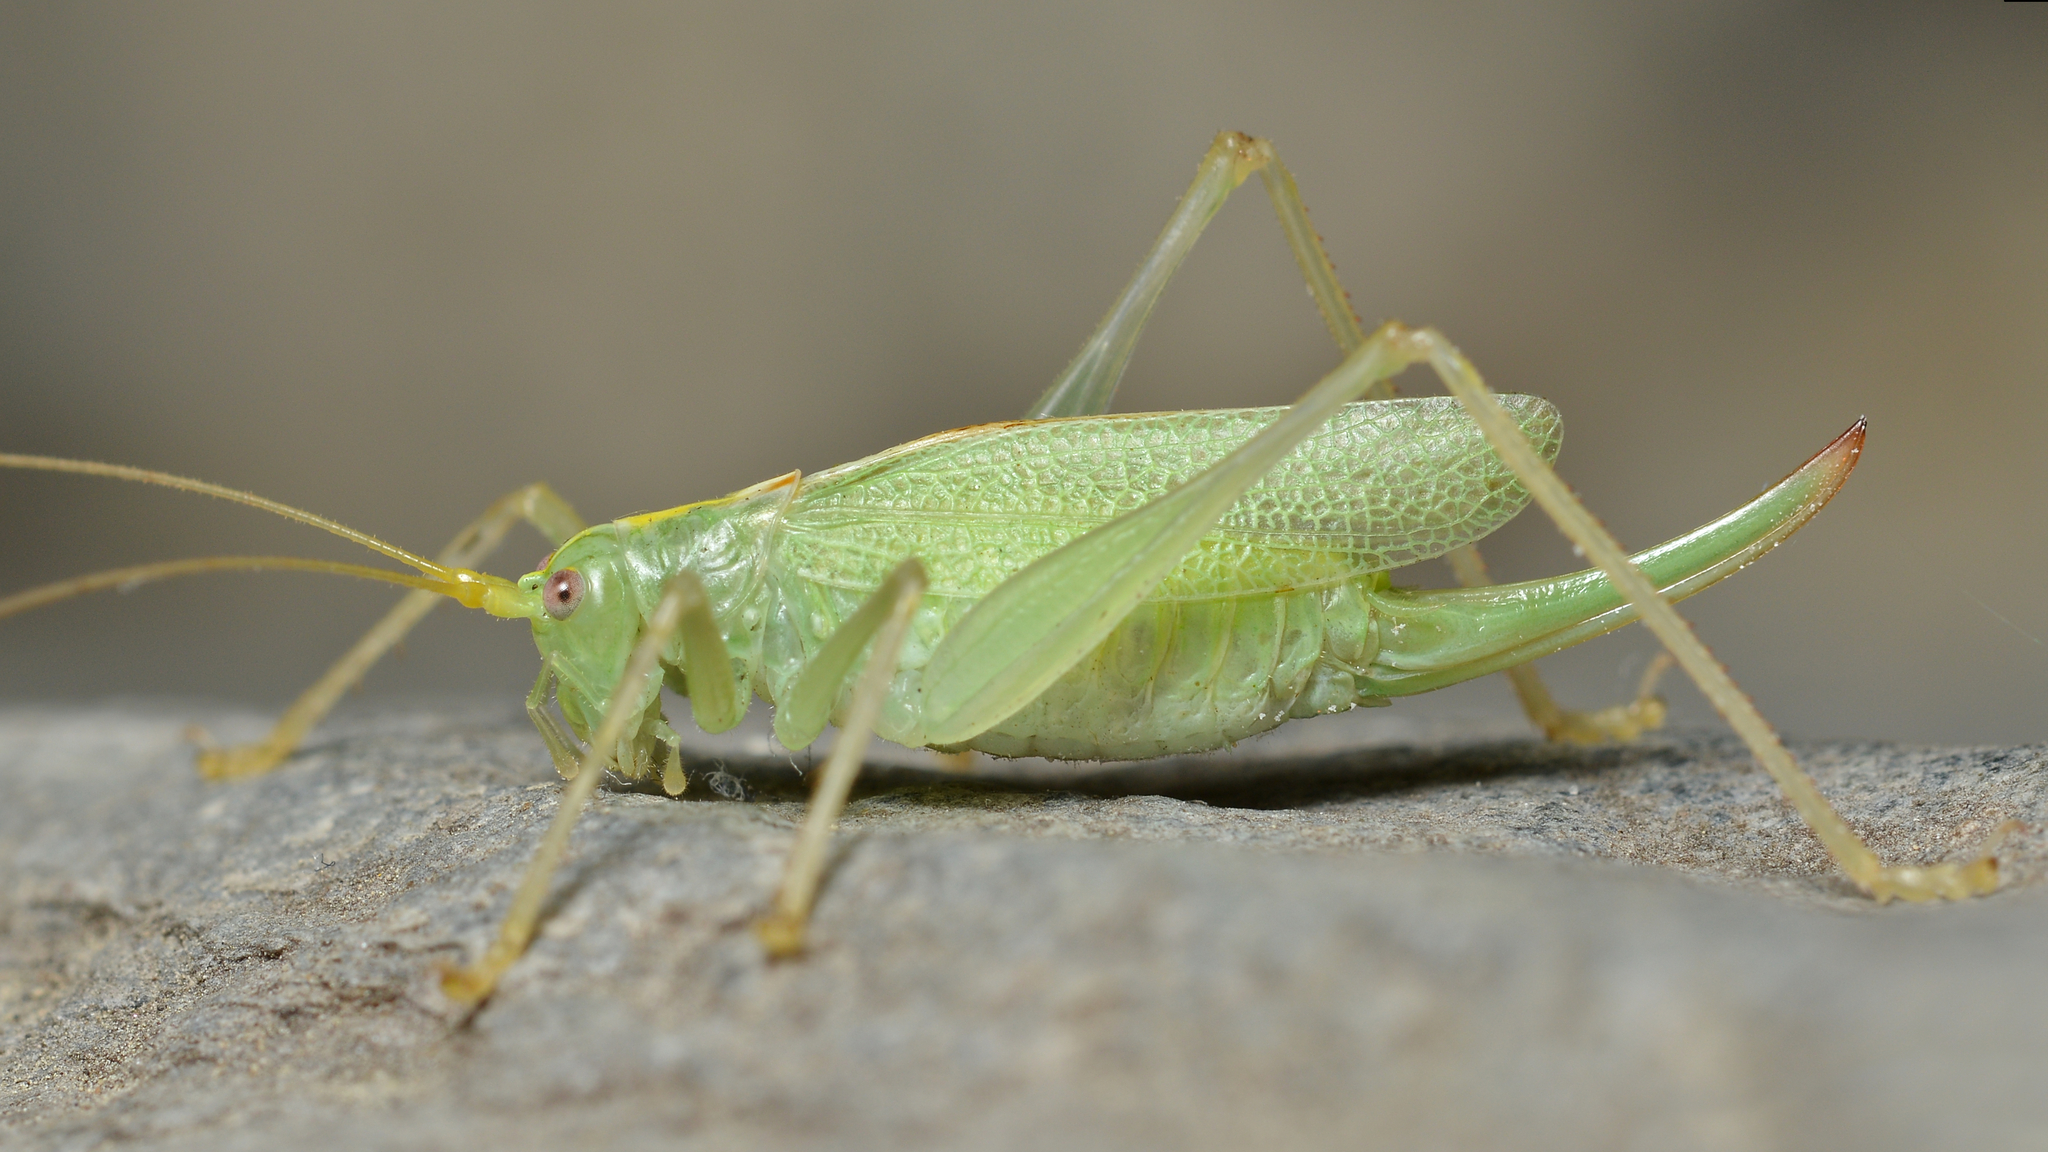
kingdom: Animalia
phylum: Arthropoda
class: Insecta
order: Orthoptera
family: Tettigoniidae
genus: Meconema
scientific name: Meconema thalassinum
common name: Oak bush-cricket
